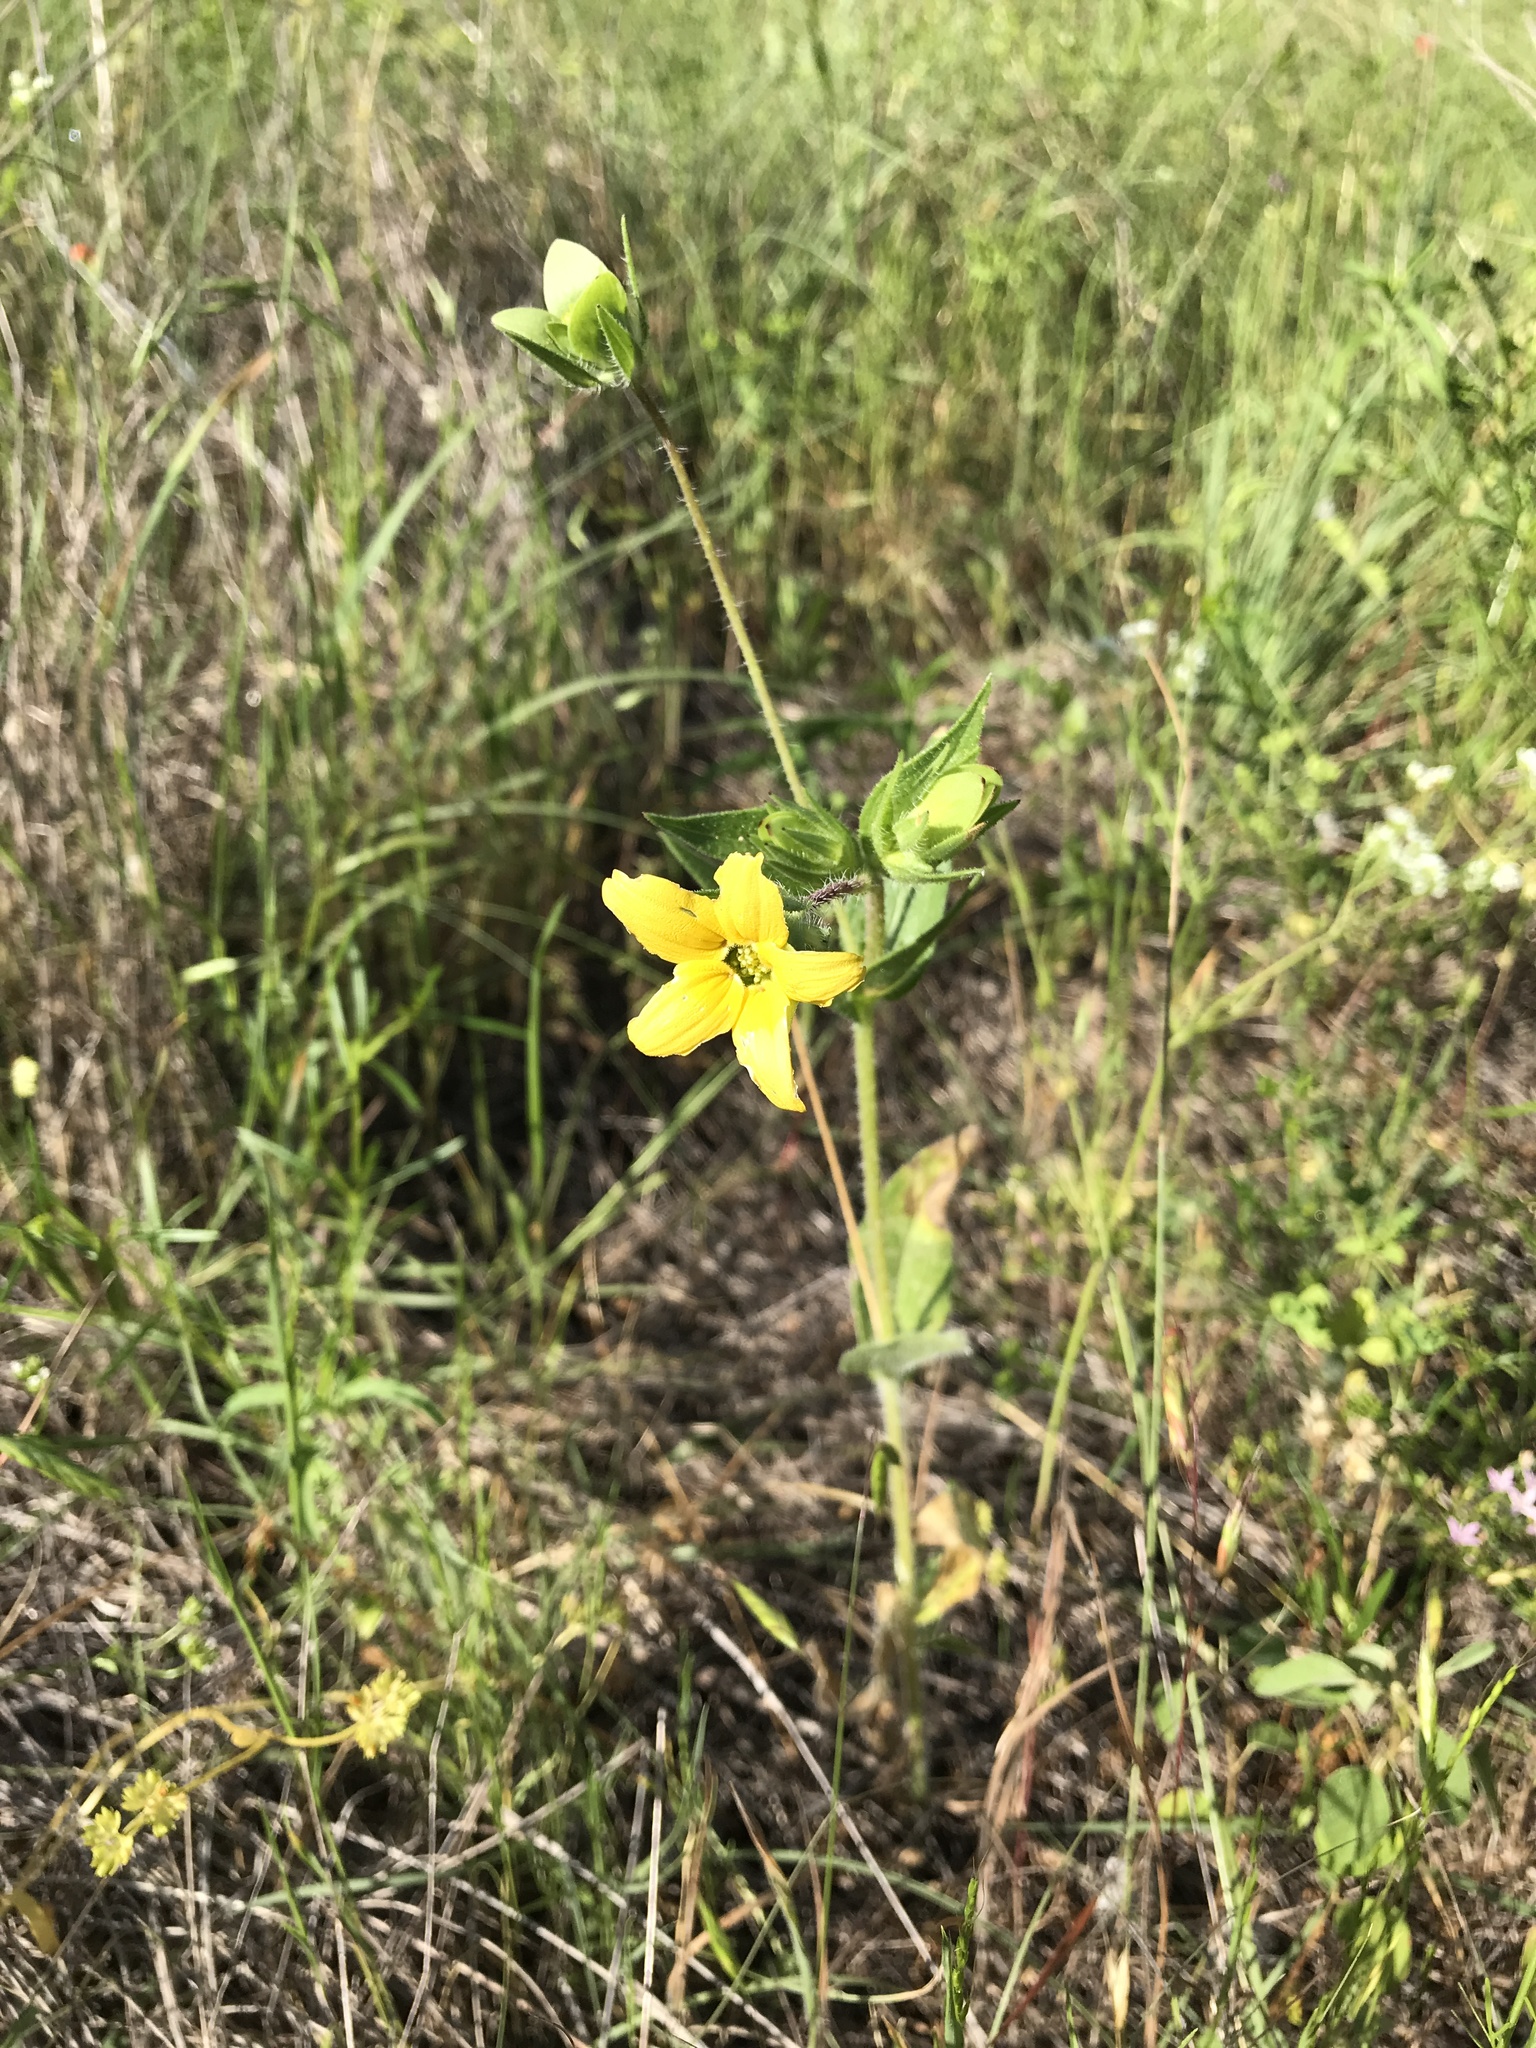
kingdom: Plantae
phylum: Tracheophyta
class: Magnoliopsida
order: Asterales
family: Asteraceae
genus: Lindheimera
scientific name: Lindheimera texana
